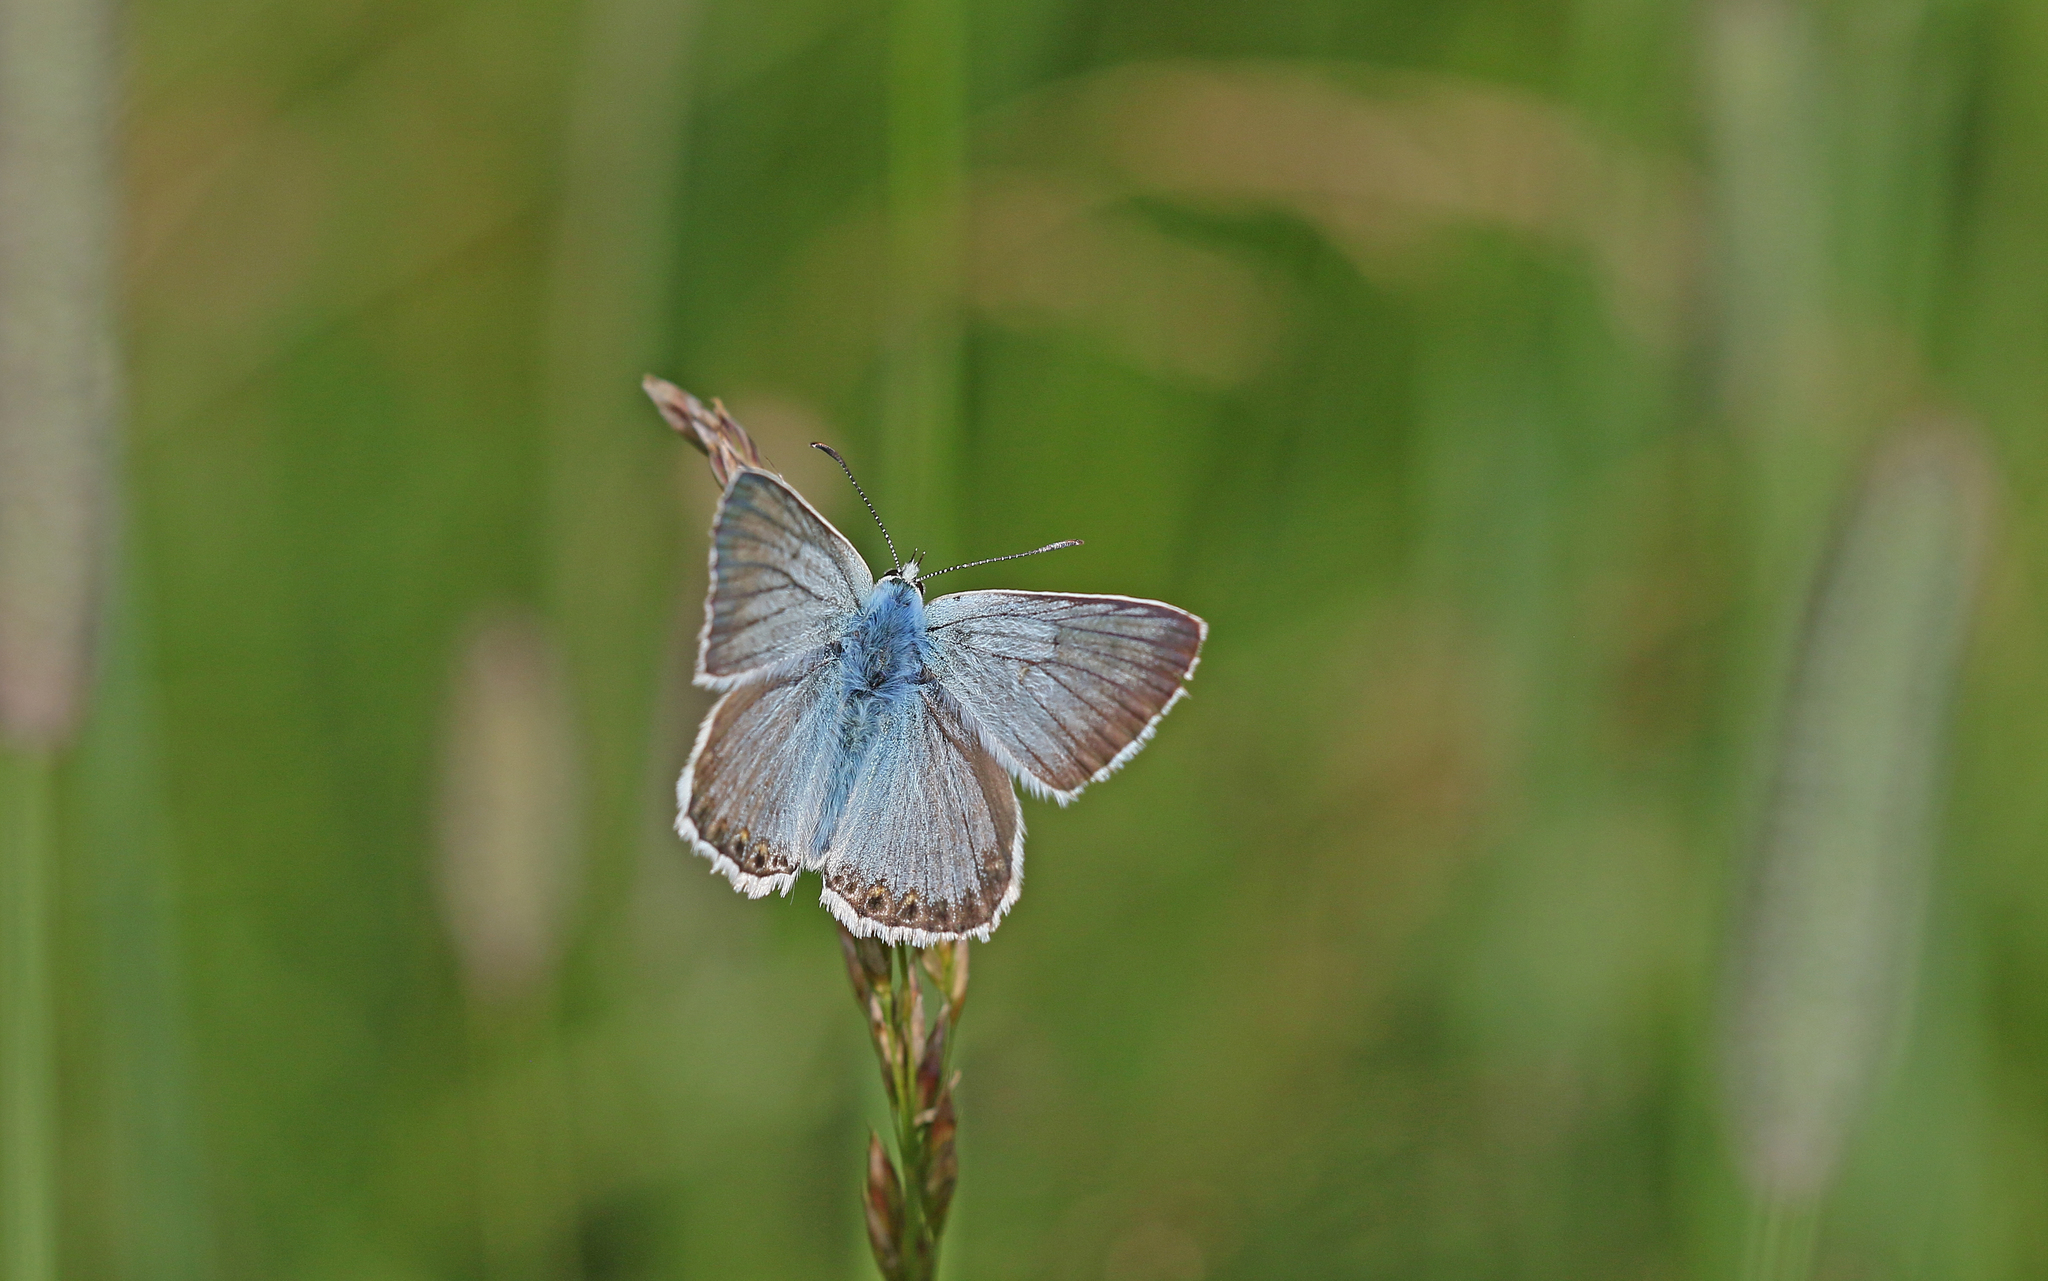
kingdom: Animalia
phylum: Arthropoda
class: Insecta
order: Lepidoptera
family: Lycaenidae
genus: Lysandra
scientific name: Lysandra coridon
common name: Chalkhill blue
